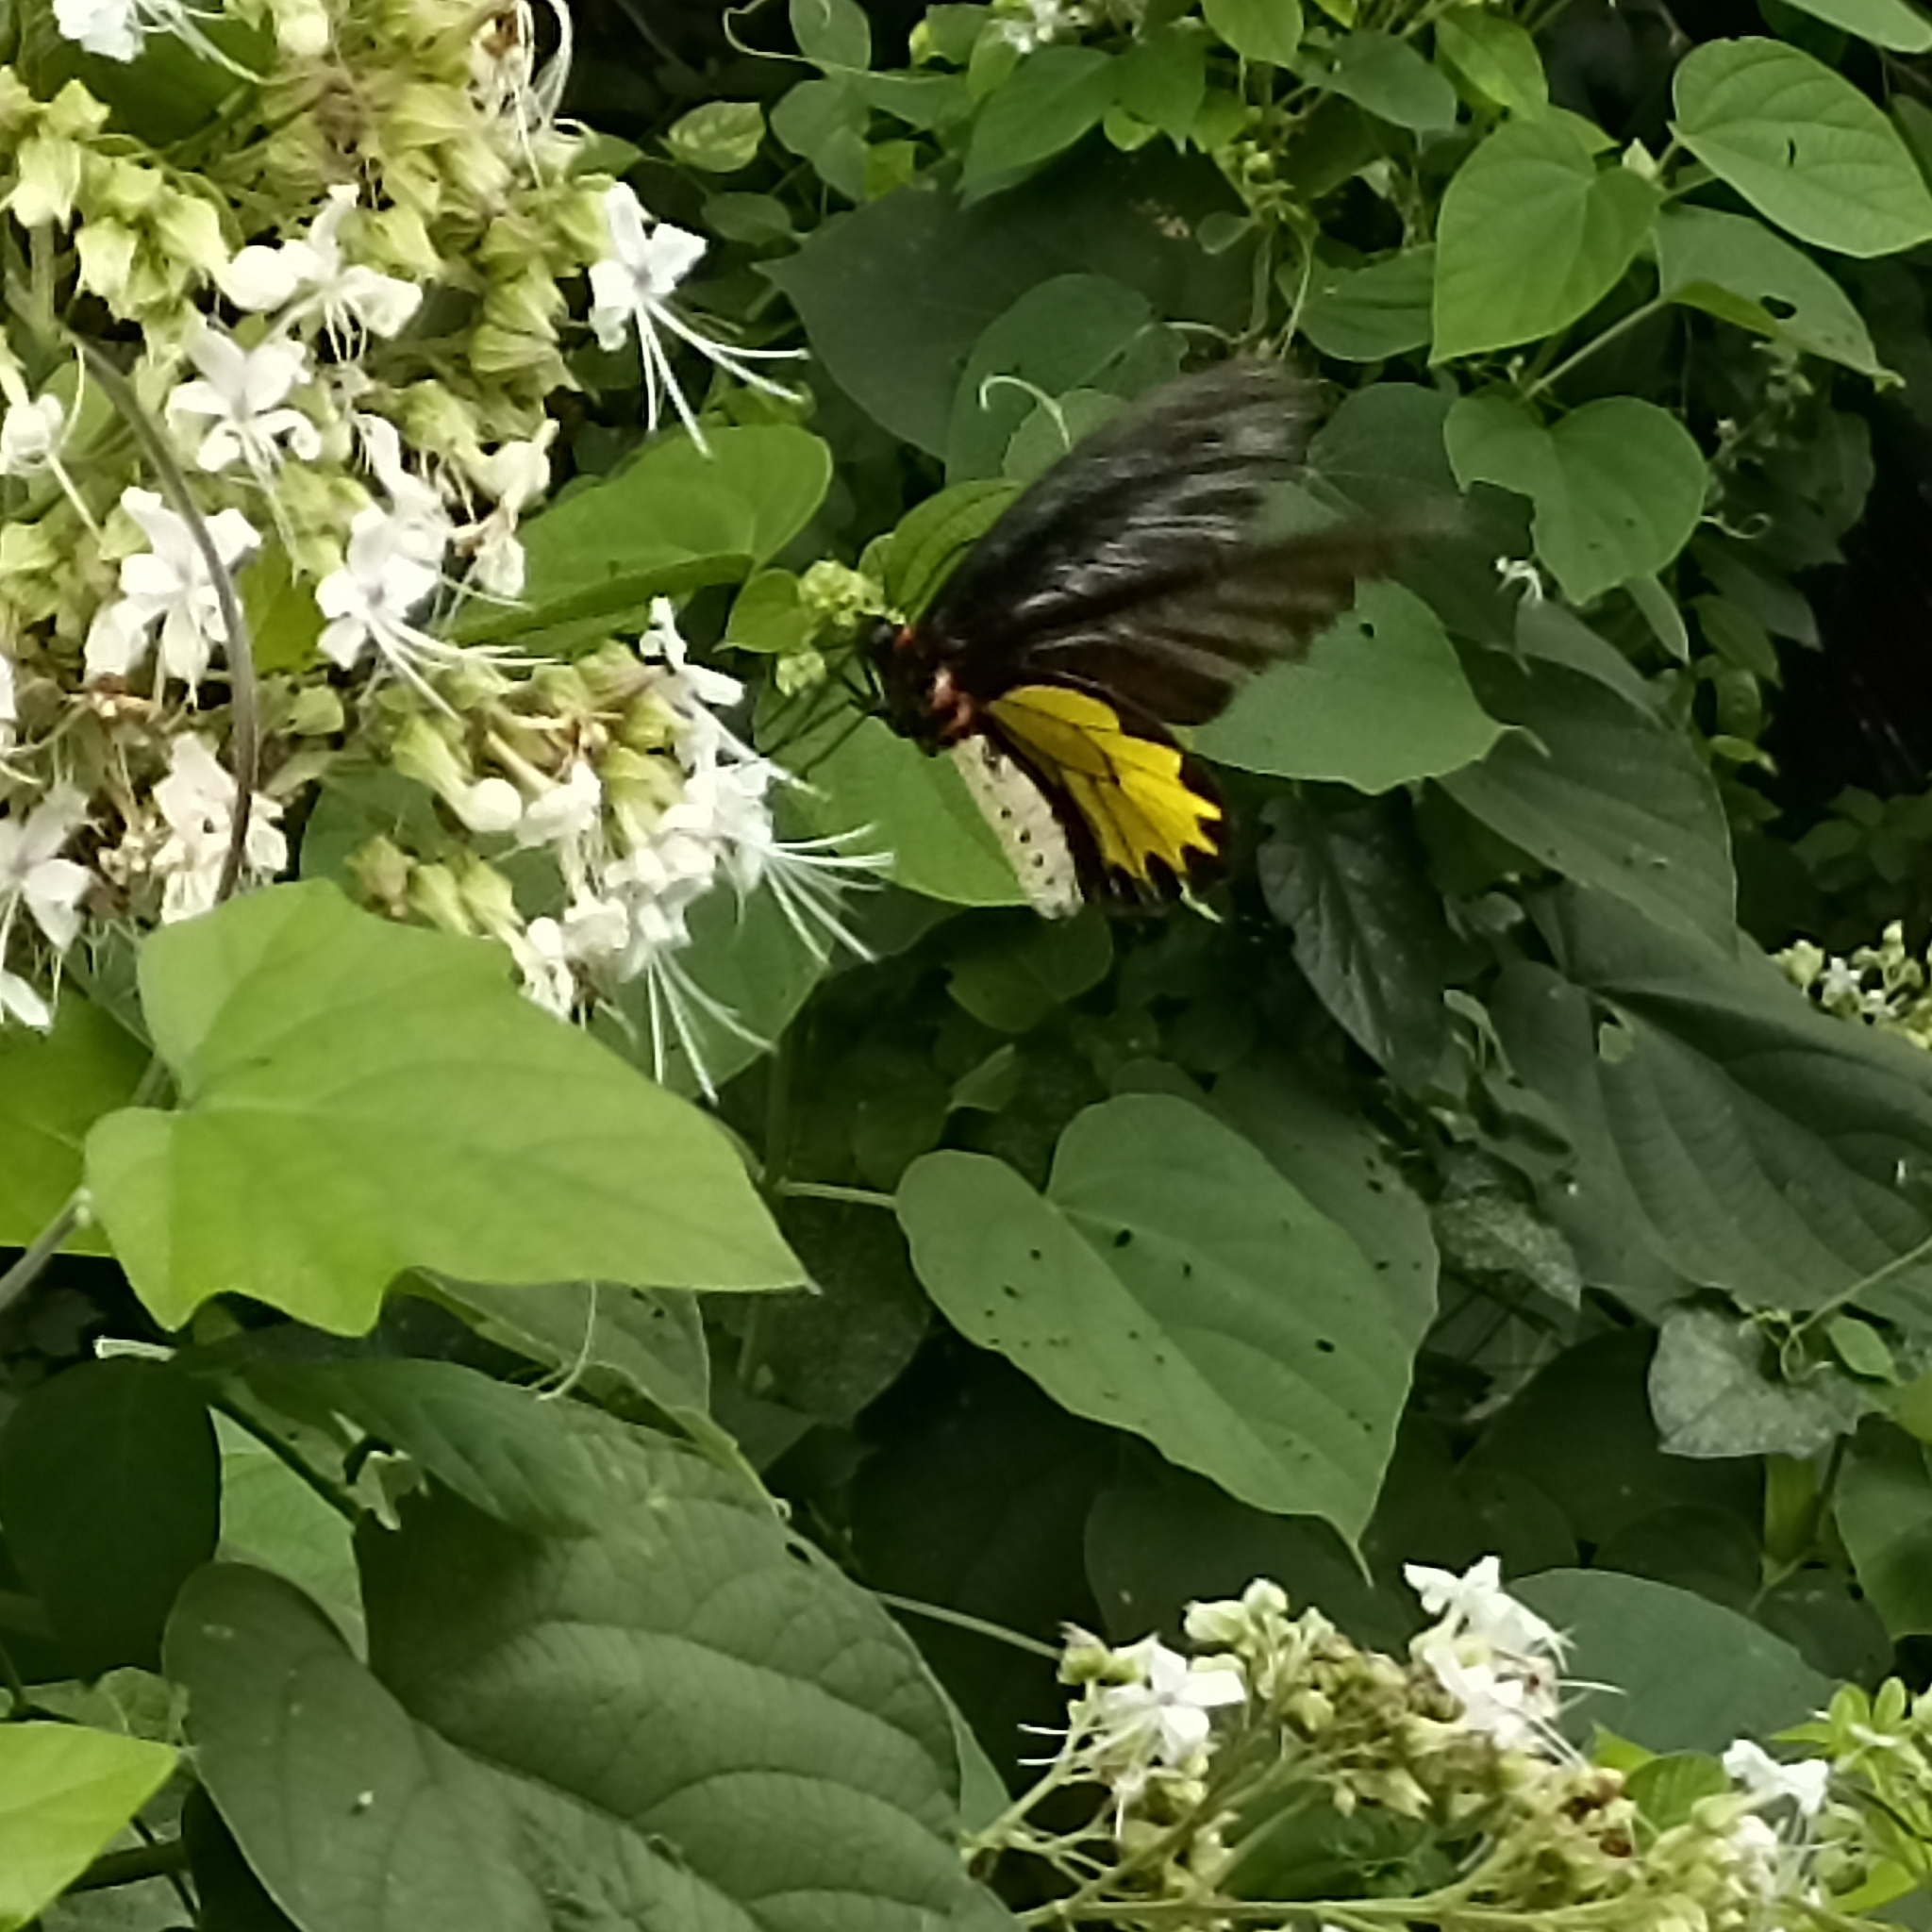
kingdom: Animalia
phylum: Arthropoda
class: Insecta
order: Lepidoptera
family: Papilionidae
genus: Troides
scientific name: Troides minos
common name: Malabar birdwing
